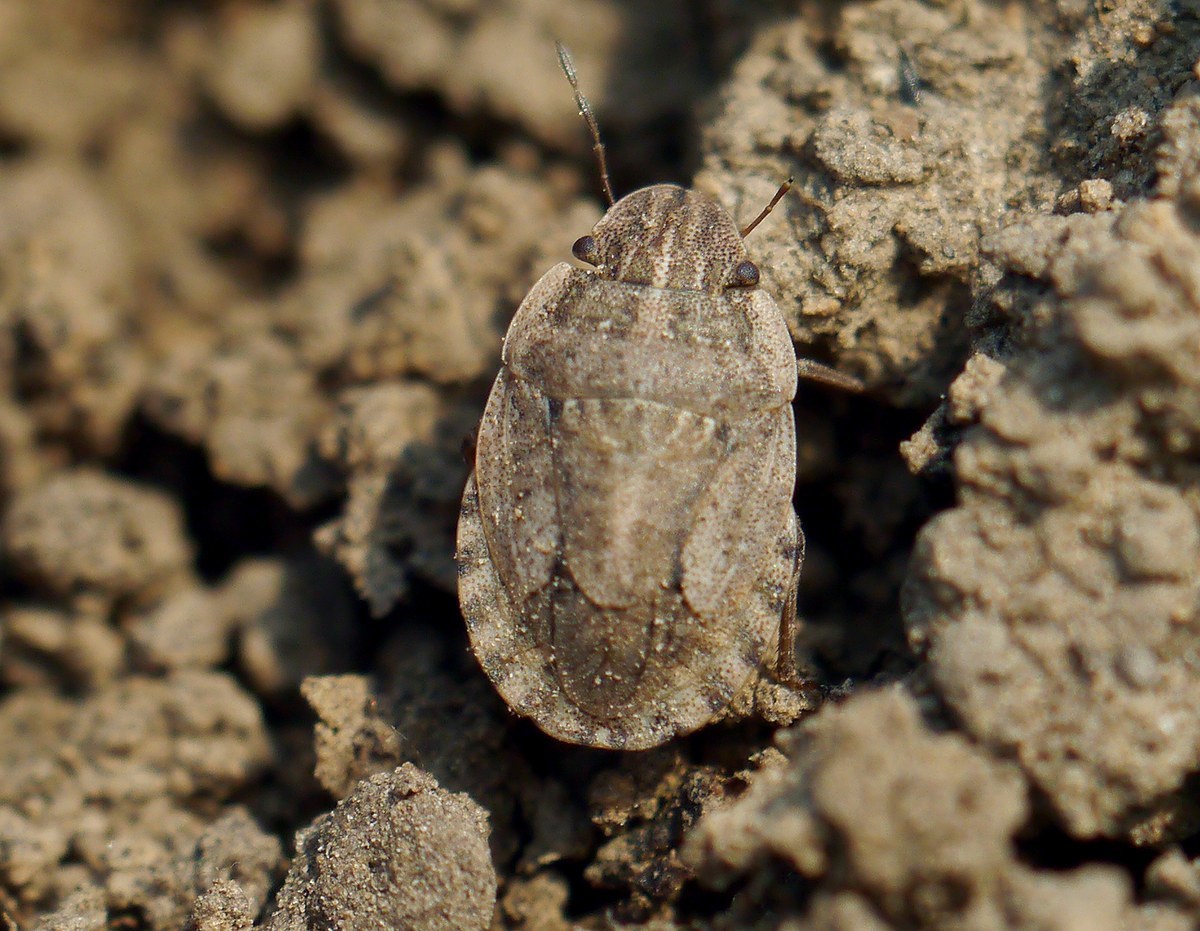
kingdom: Animalia
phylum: Arthropoda
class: Insecta
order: Hemiptera
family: Pentatomidae
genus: Sciocoris
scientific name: Sciocoris cursitans
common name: Sandrunner
